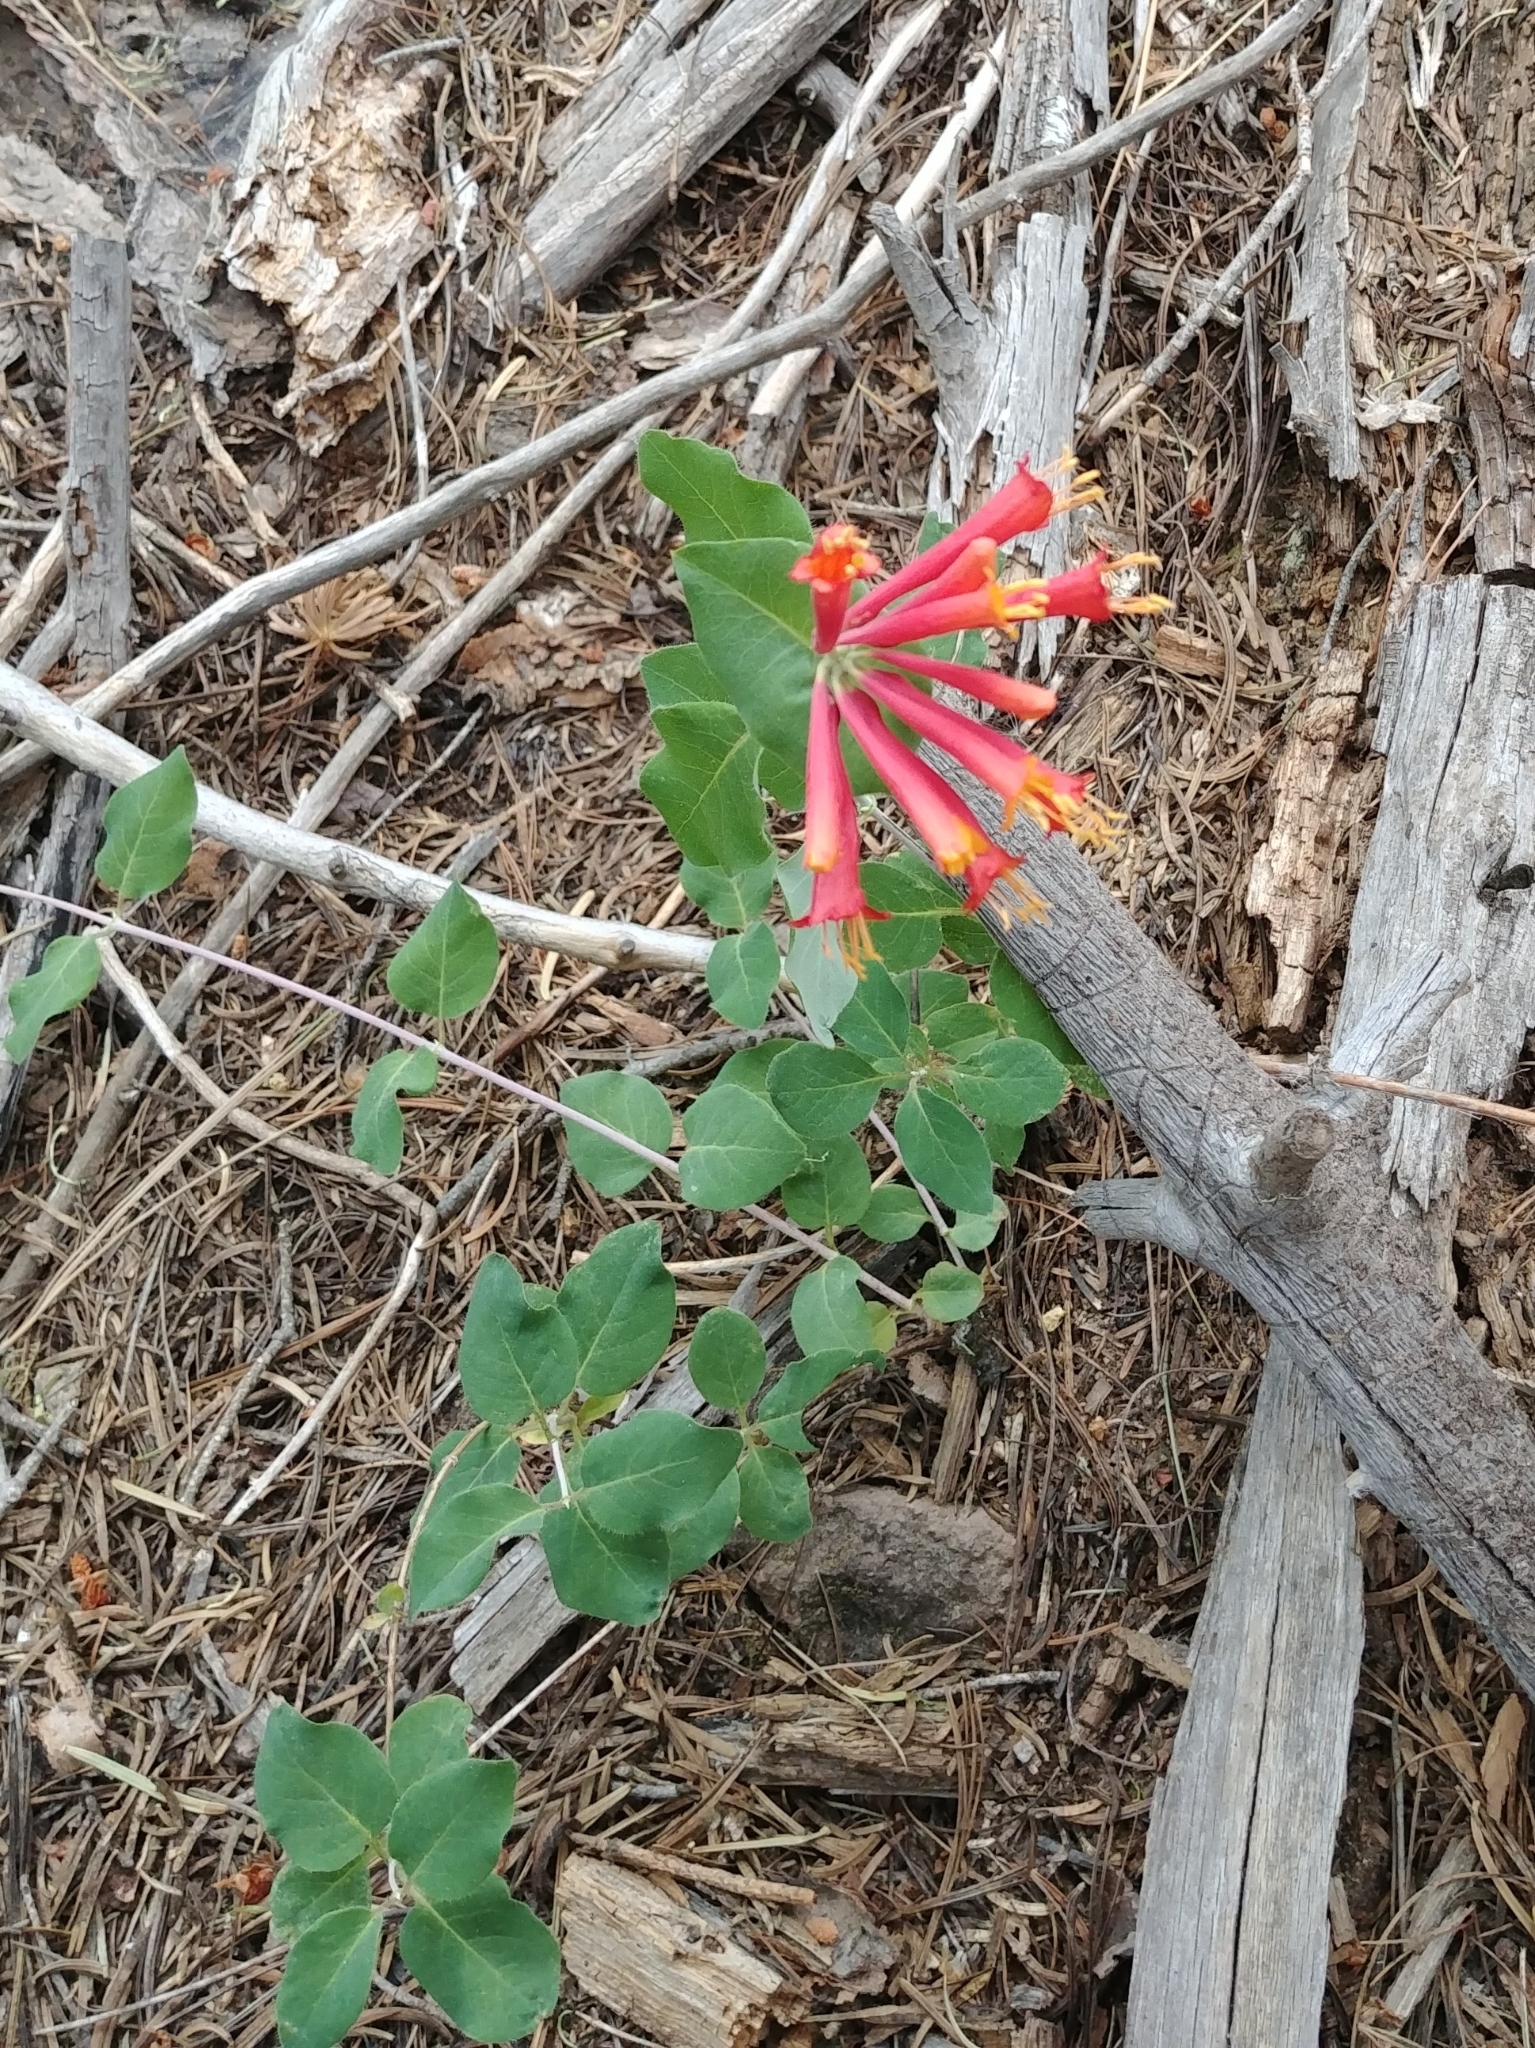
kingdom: Plantae
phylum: Tracheophyta
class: Magnoliopsida
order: Dipsacales
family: Caprifoliaceae
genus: Lonicera
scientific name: Lonicera arizonica
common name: Arizona honeysuckle
